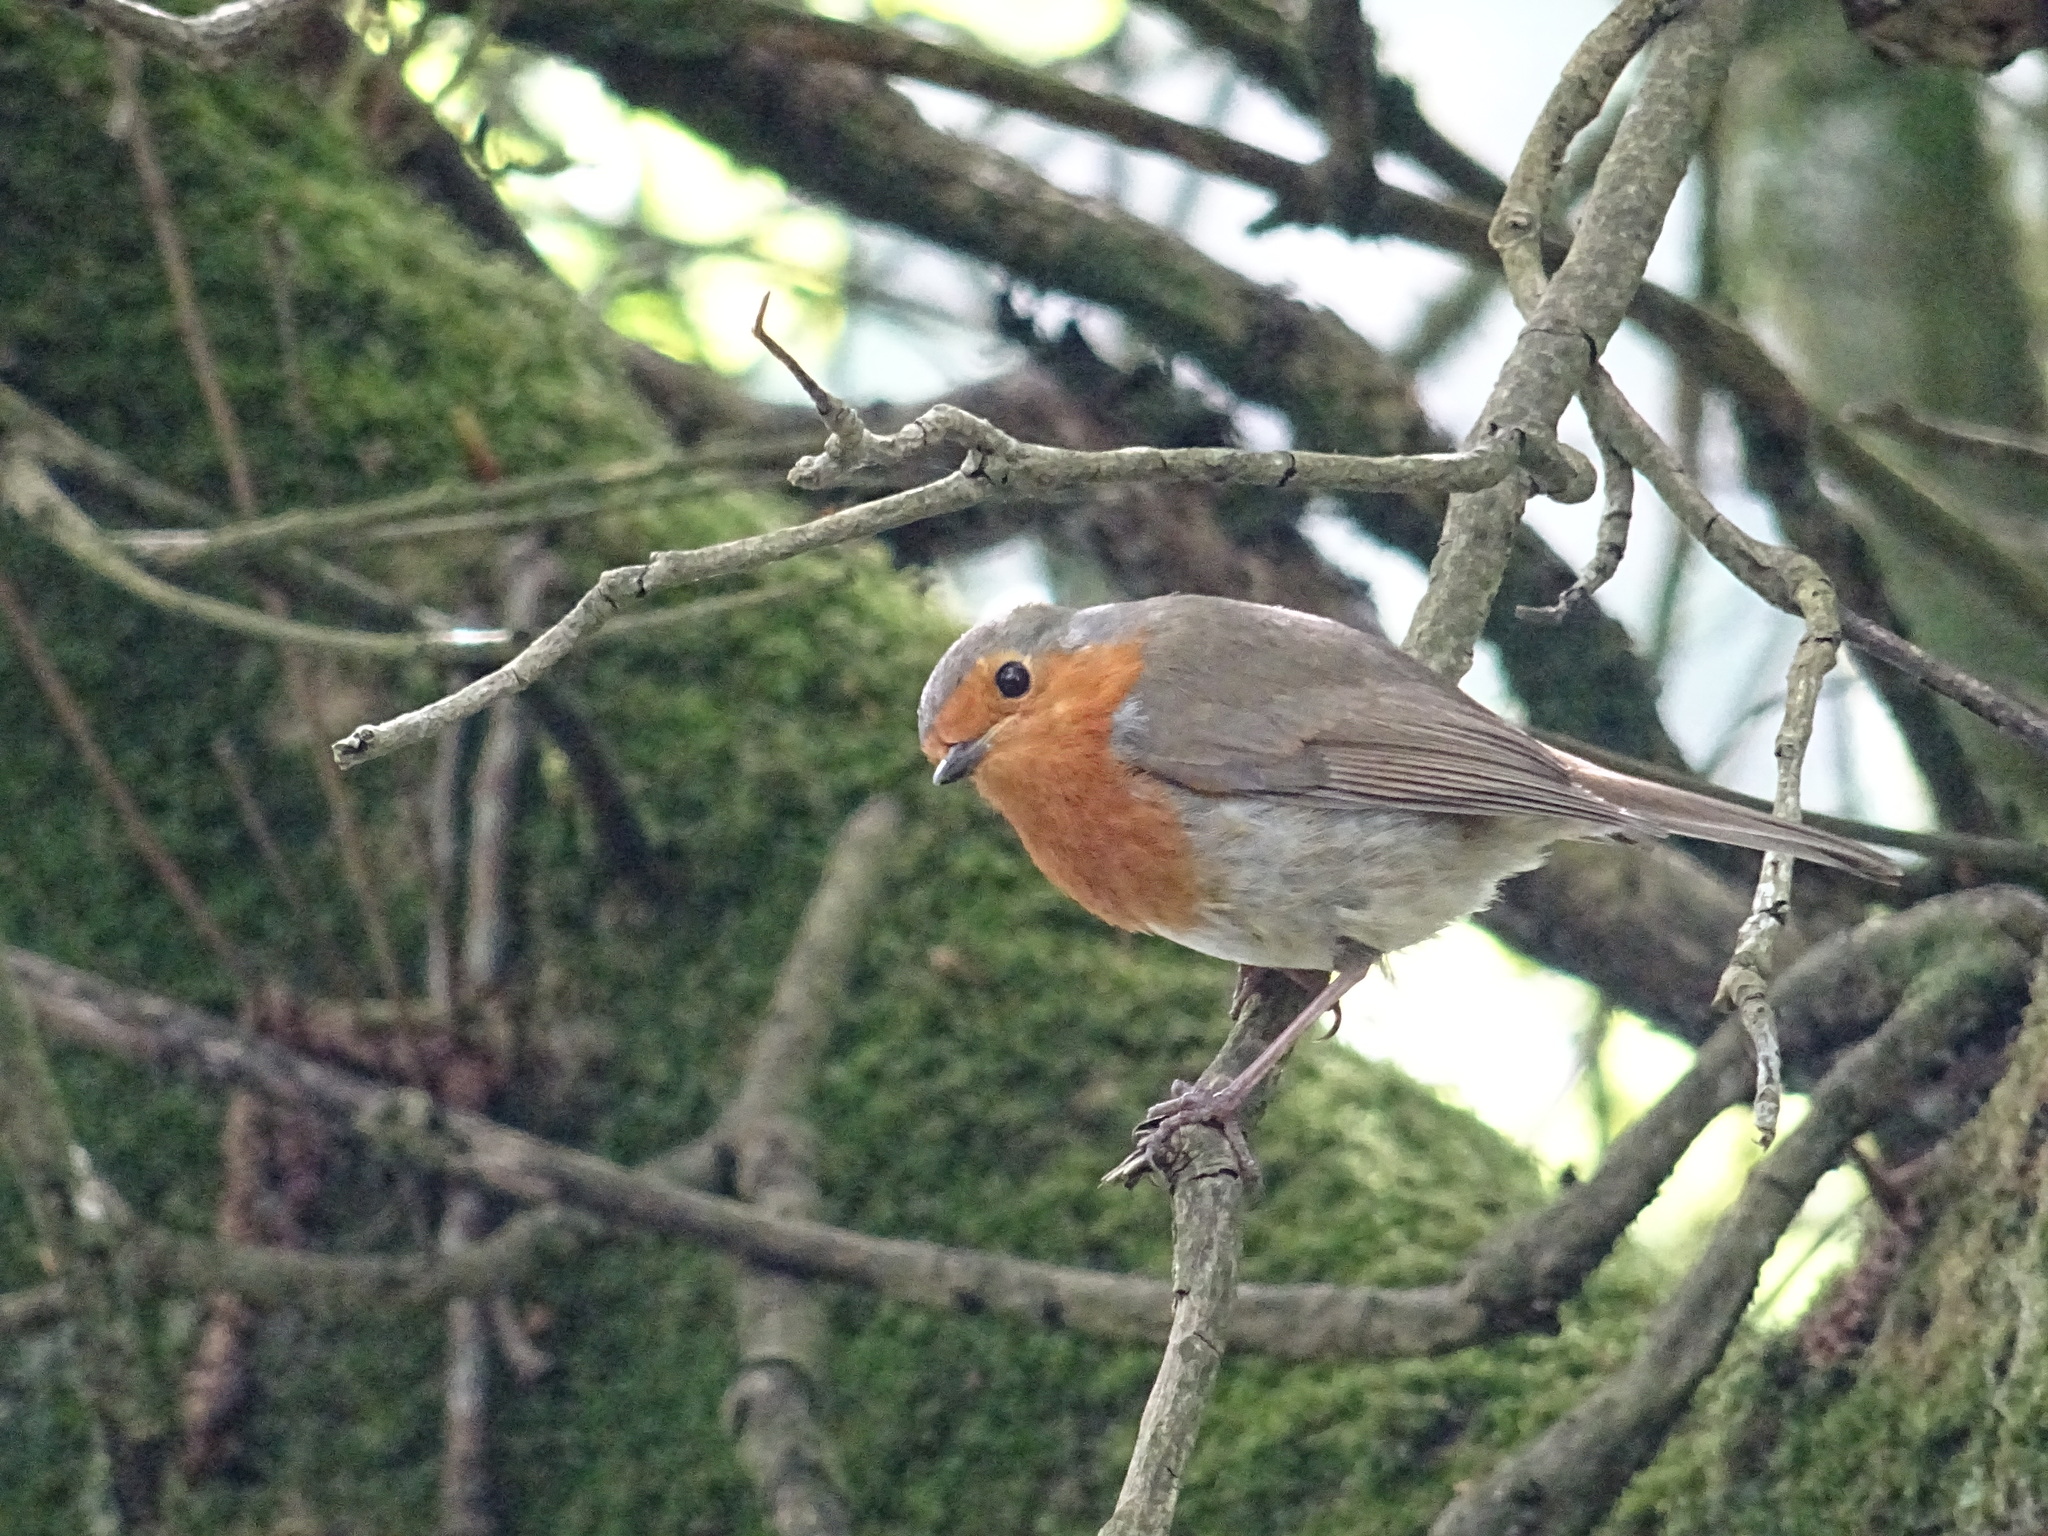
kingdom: Animalia
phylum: Chordata
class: Aves
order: Passeriformes
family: Muscicapidae
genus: Erithacus
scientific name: Erithacus rubecula
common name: European robin
